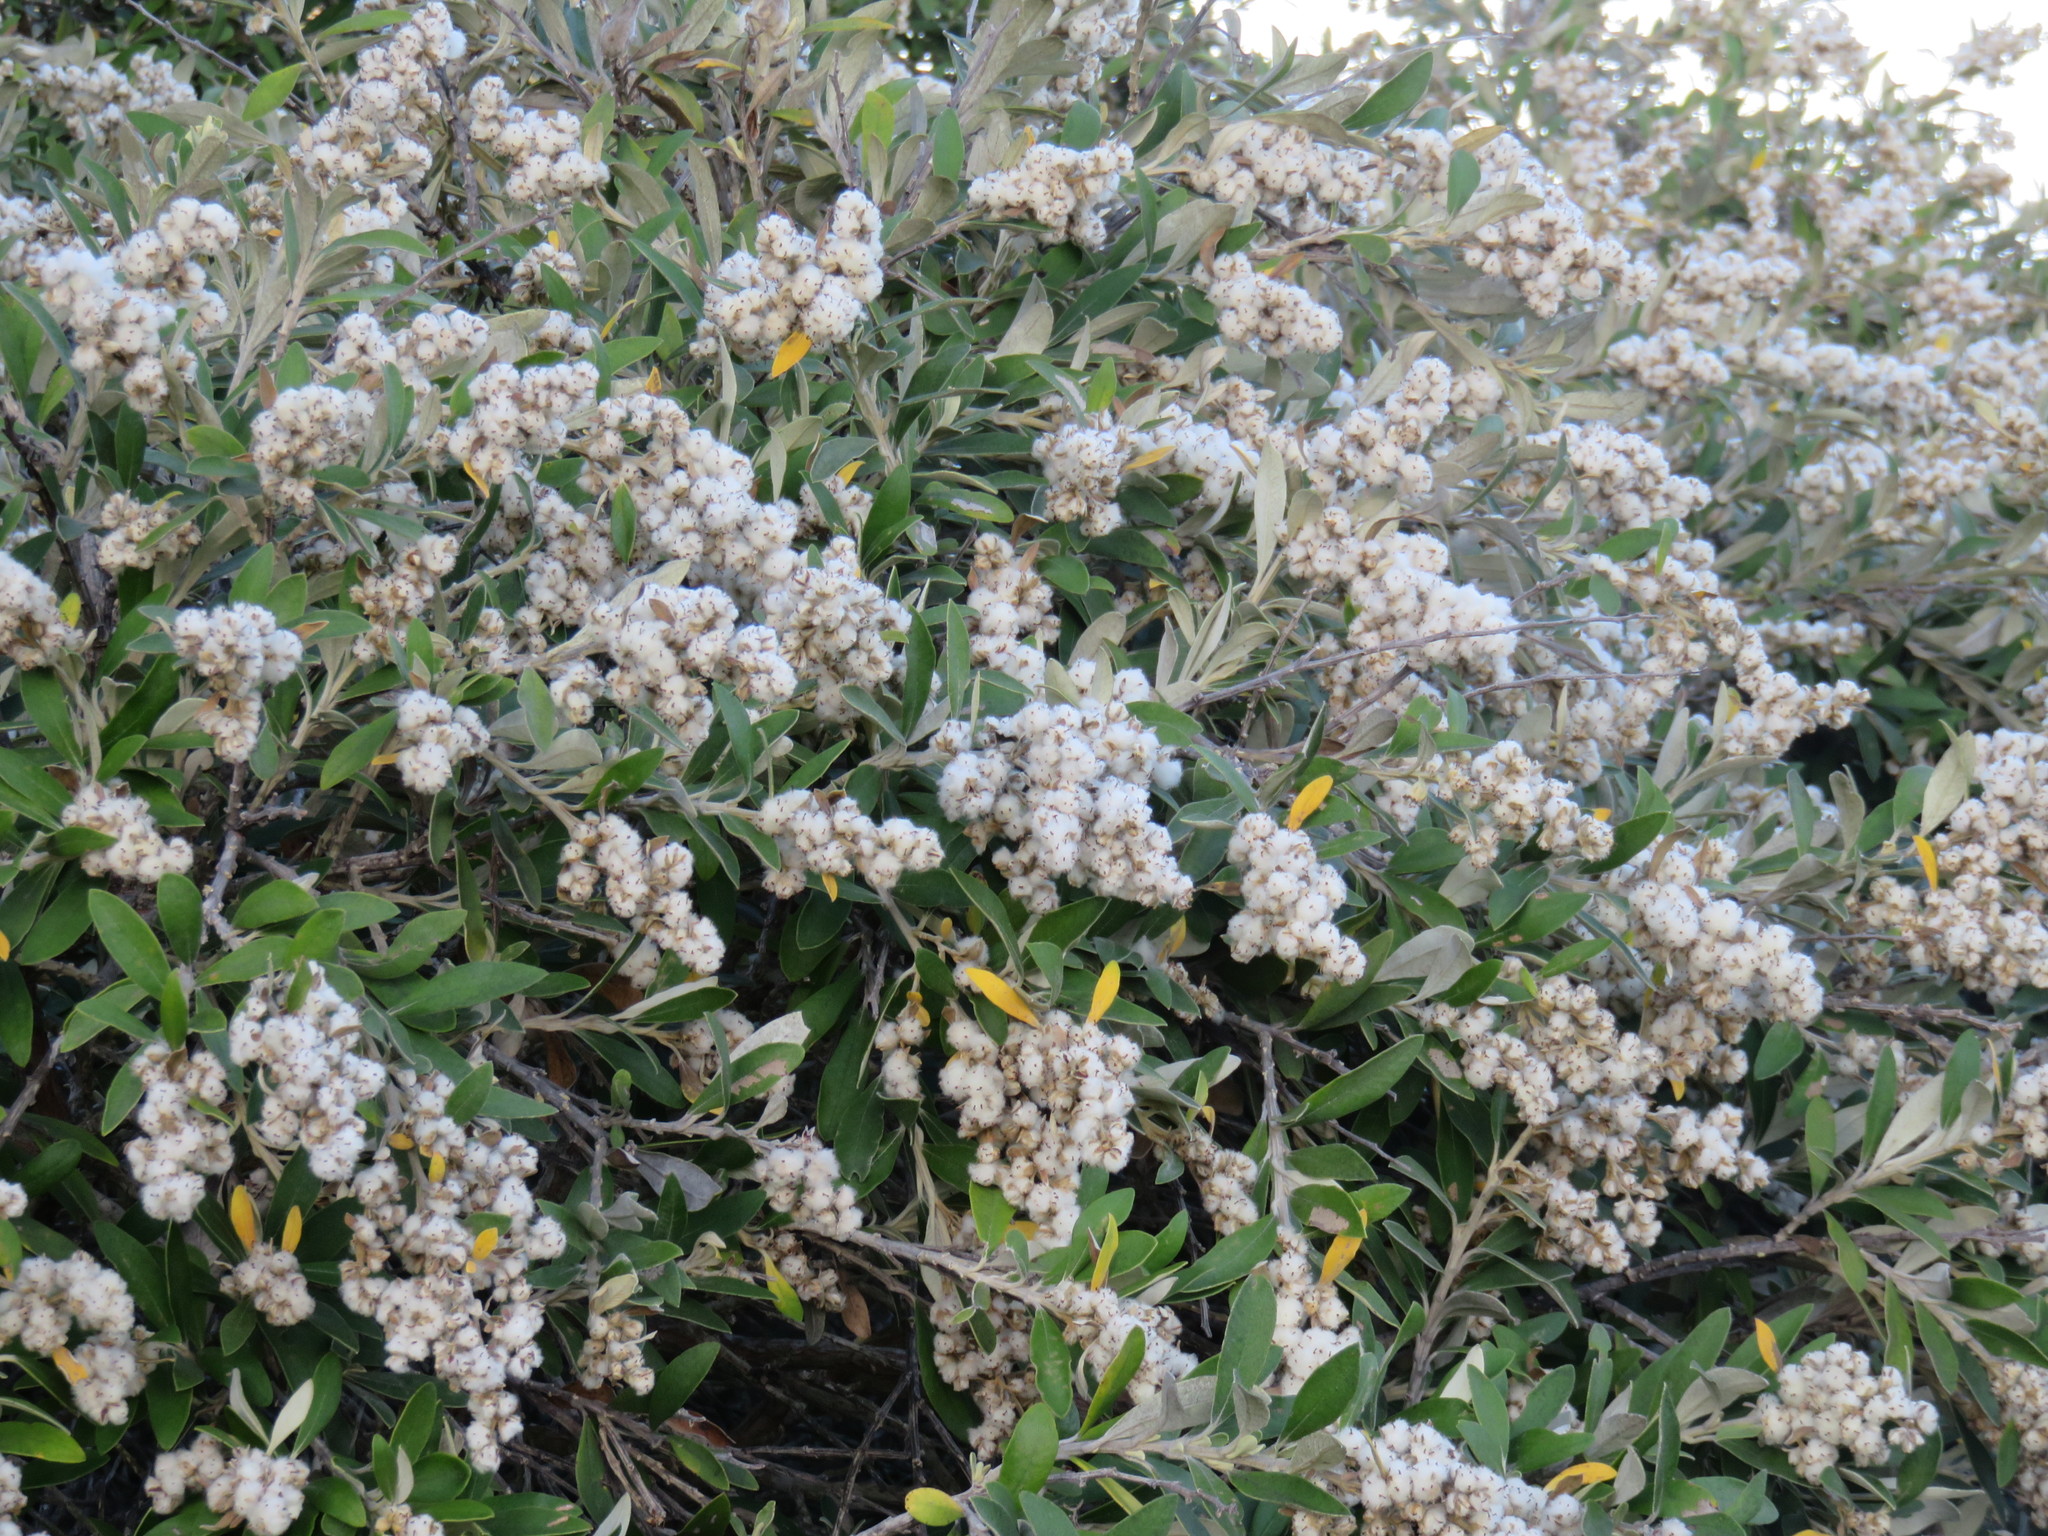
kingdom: Plantae
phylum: Tracheophyta
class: Magnoliopsida
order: Asterales
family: Asteraceae
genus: Tarchonanthus
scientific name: Tarchonanthus littoralis
